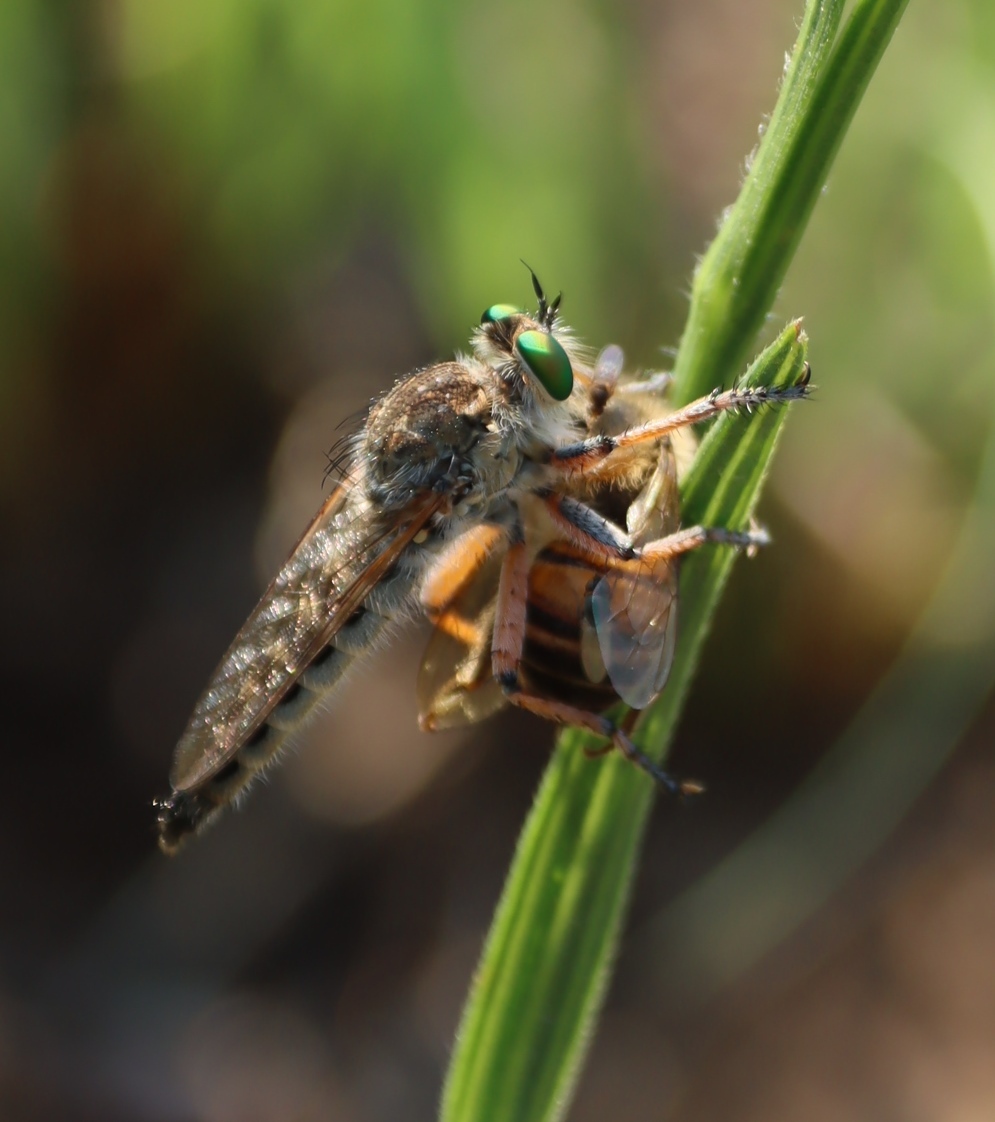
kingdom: Animalia
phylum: Arthropoda
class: Insecta
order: Hymenoptera
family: Apidae
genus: Apis
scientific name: Apis mellifera
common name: Honey bee
